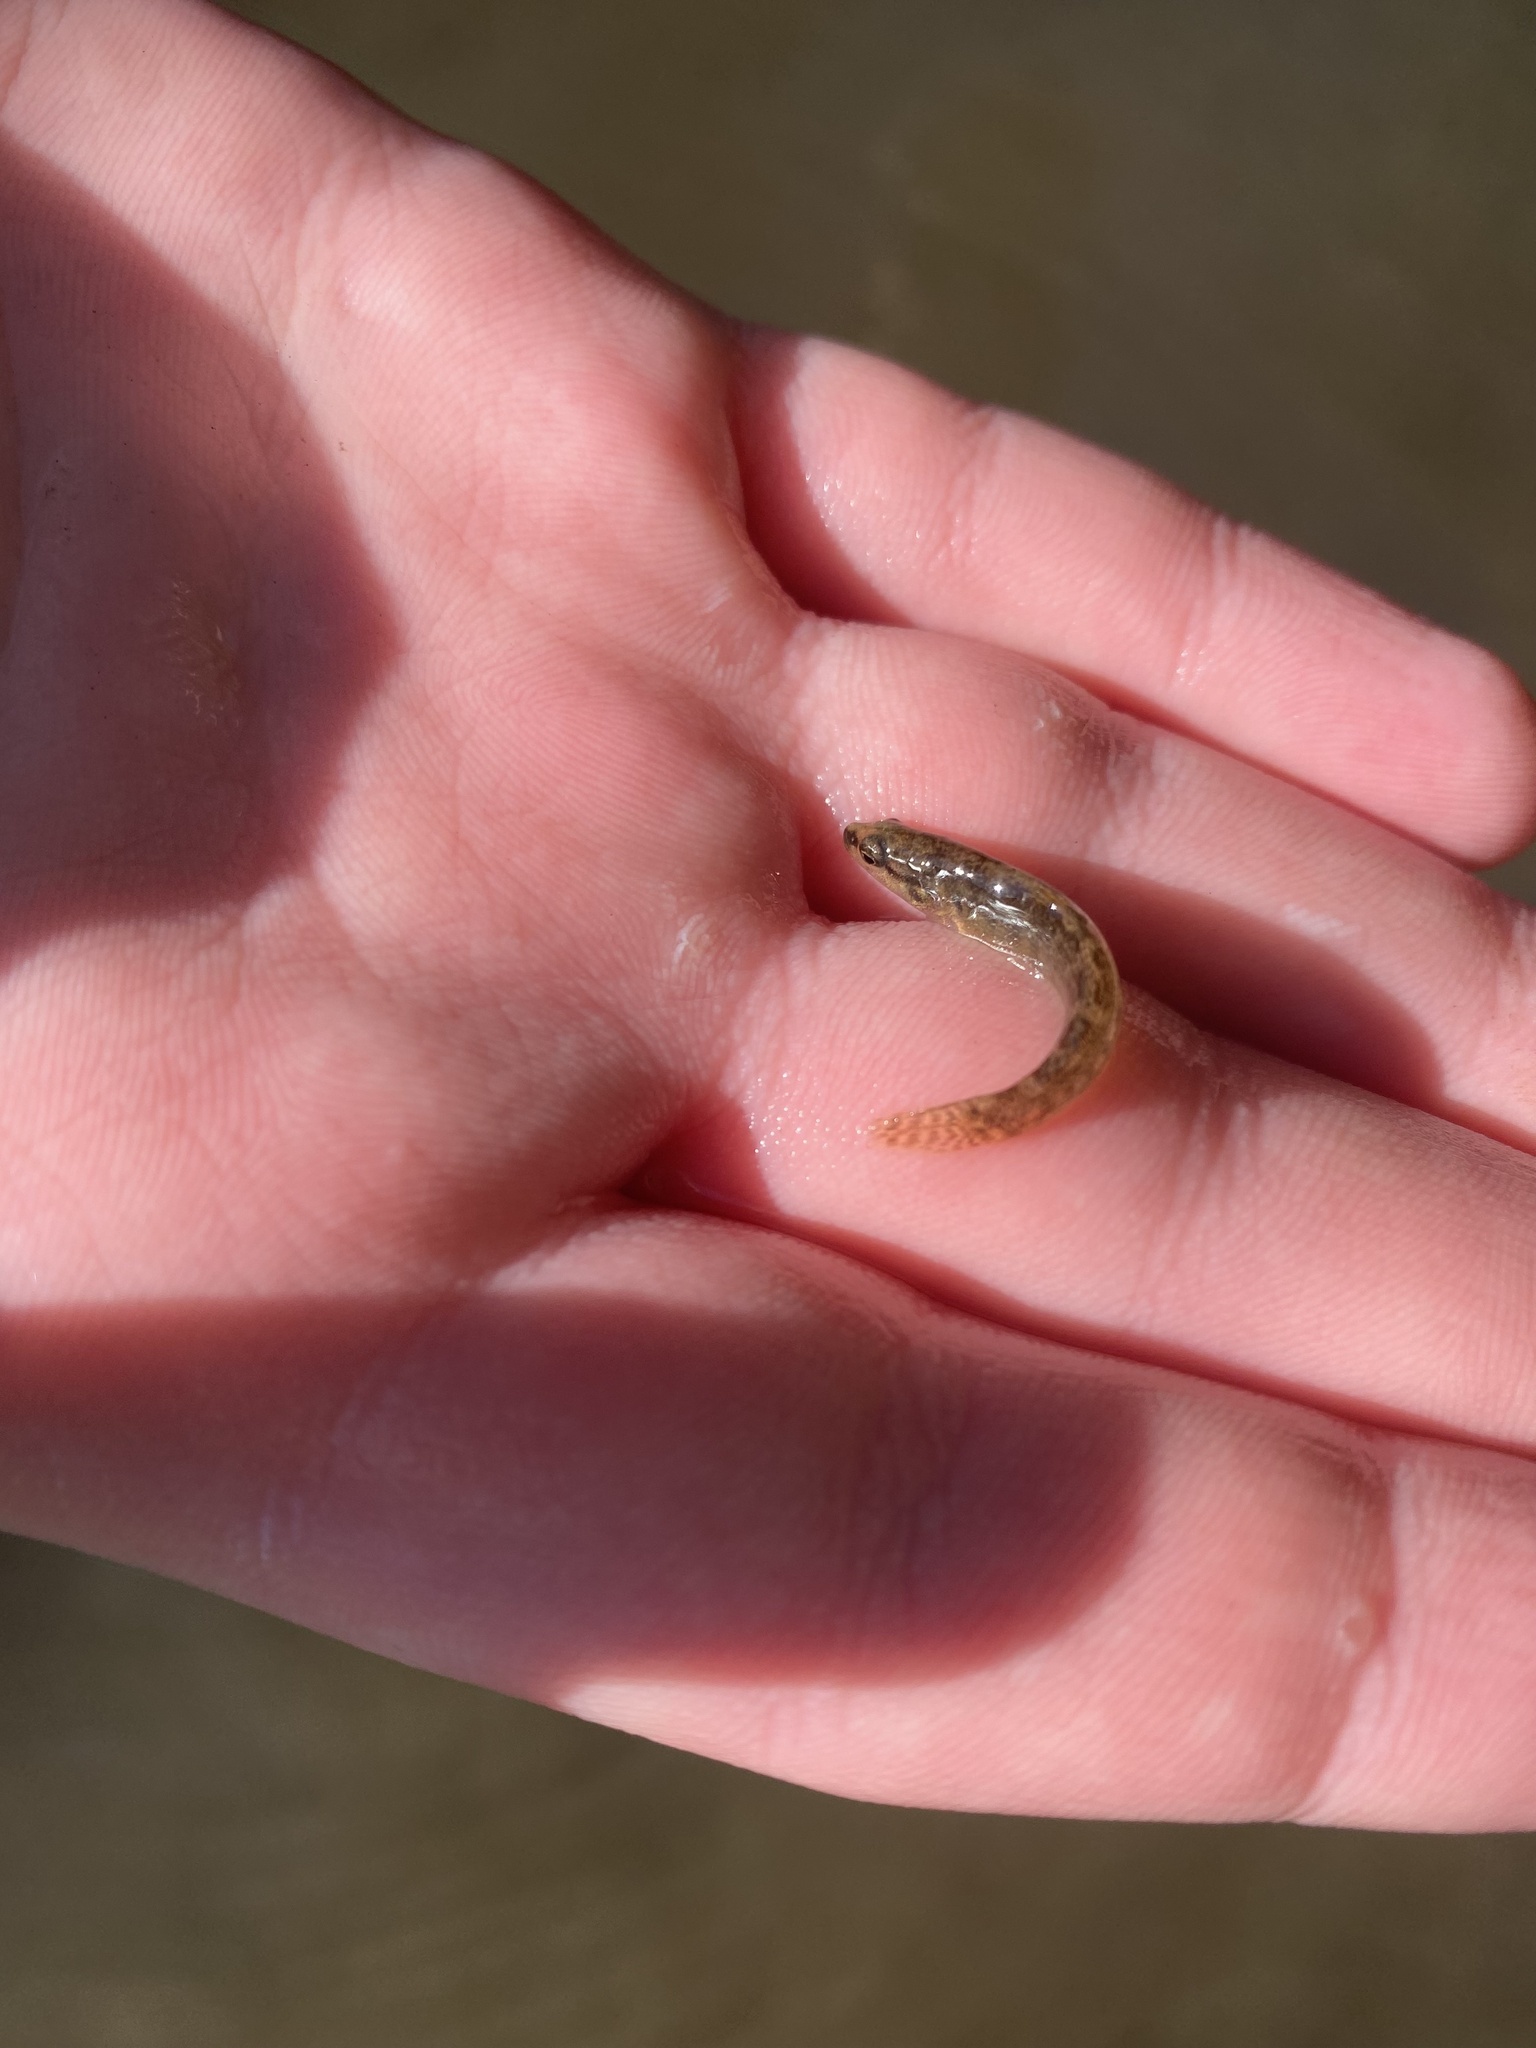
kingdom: Animalia
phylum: Chordata
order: Perciformes
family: Percidae
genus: Etheostoma
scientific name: Etheostoma flabellare
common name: Fantail darter
